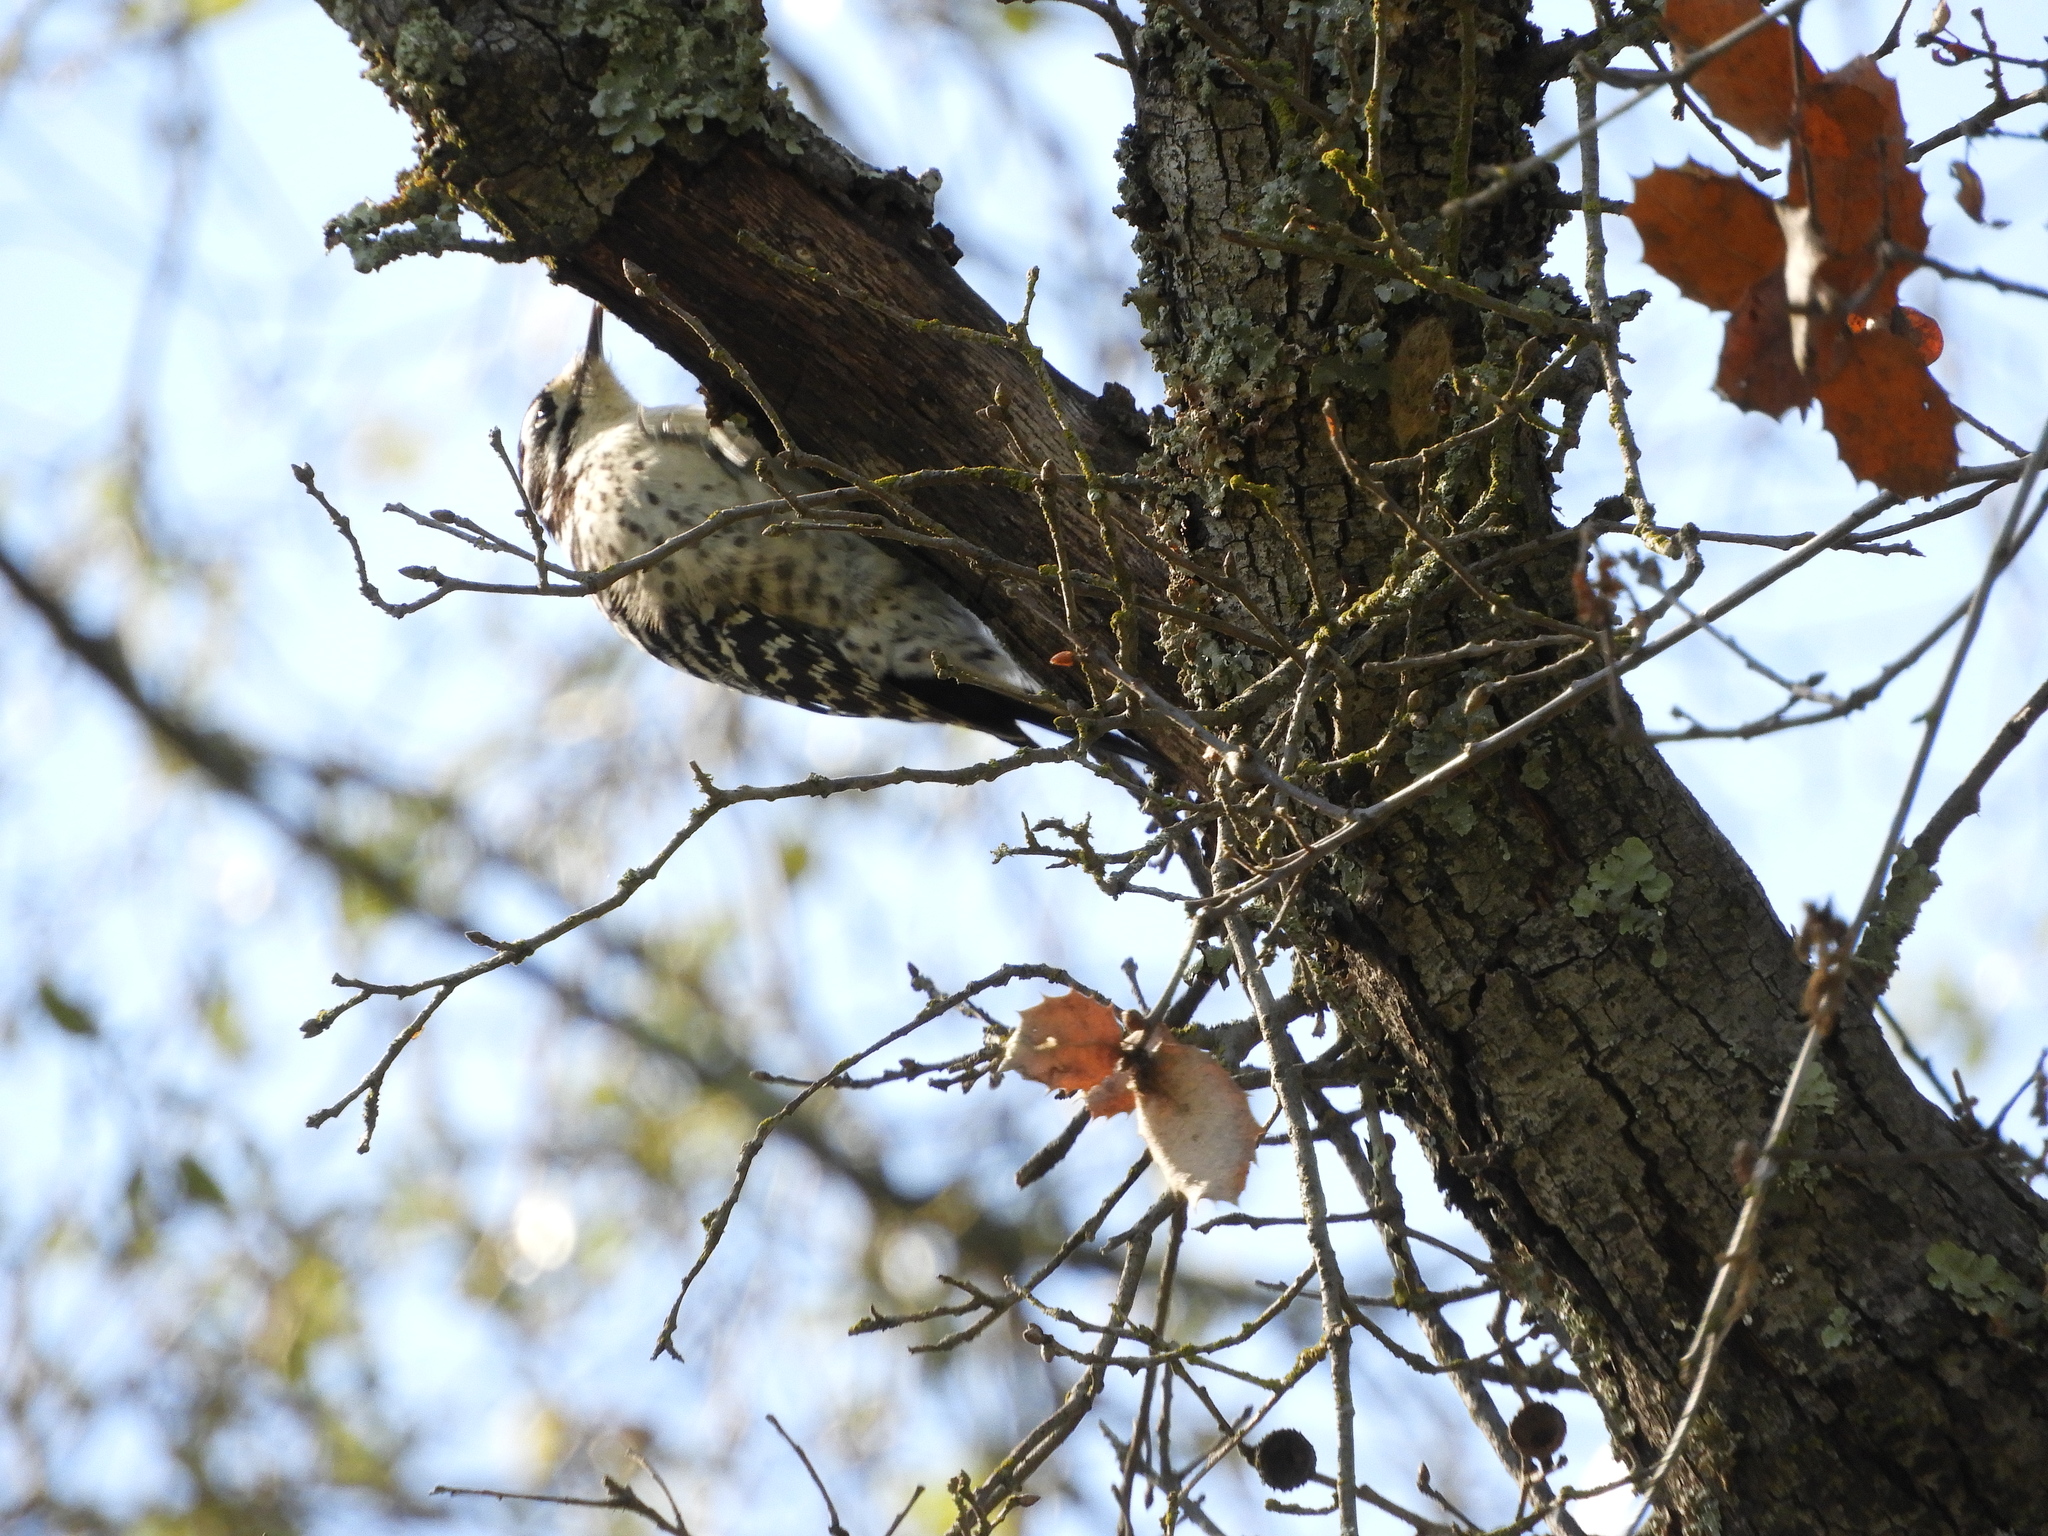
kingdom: Animalia
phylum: Chordata
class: Aves
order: Piciformes
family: Picidae
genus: Dryobates
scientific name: Dryobates nuttallii
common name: Nuttall's woodpecker
